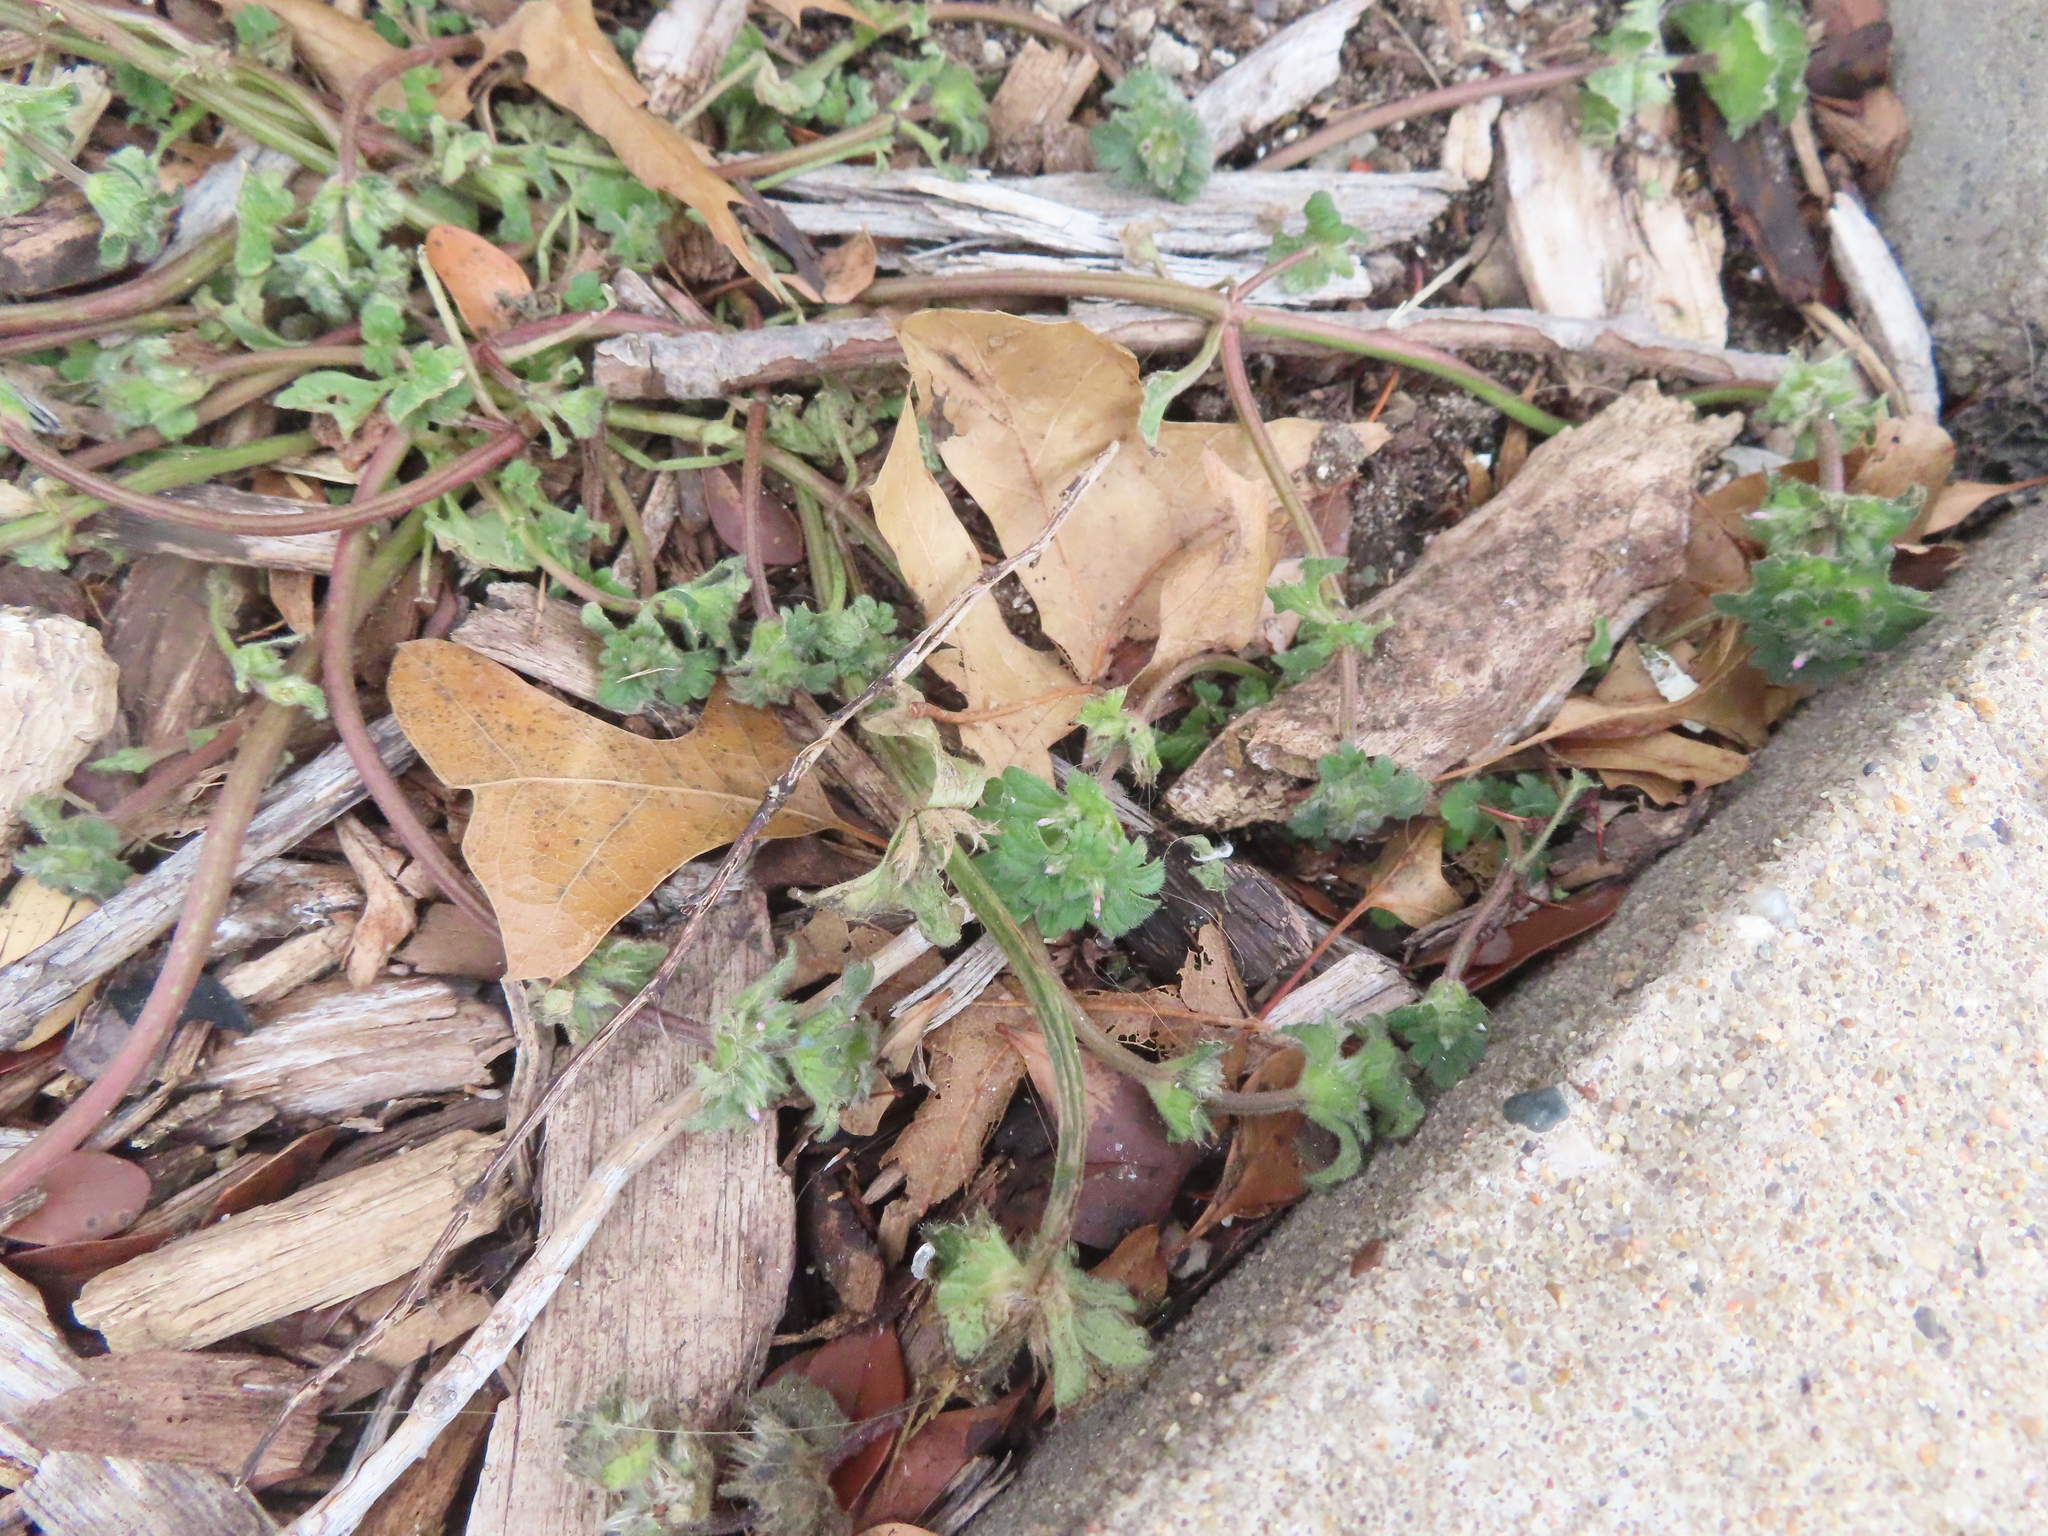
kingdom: Plantae
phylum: Tracheophyta
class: Magnoliopsida
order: Lamiales
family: Lamiaceae
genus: Lamium
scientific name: Lamium amplexicaule
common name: Henbit dead-nettle
